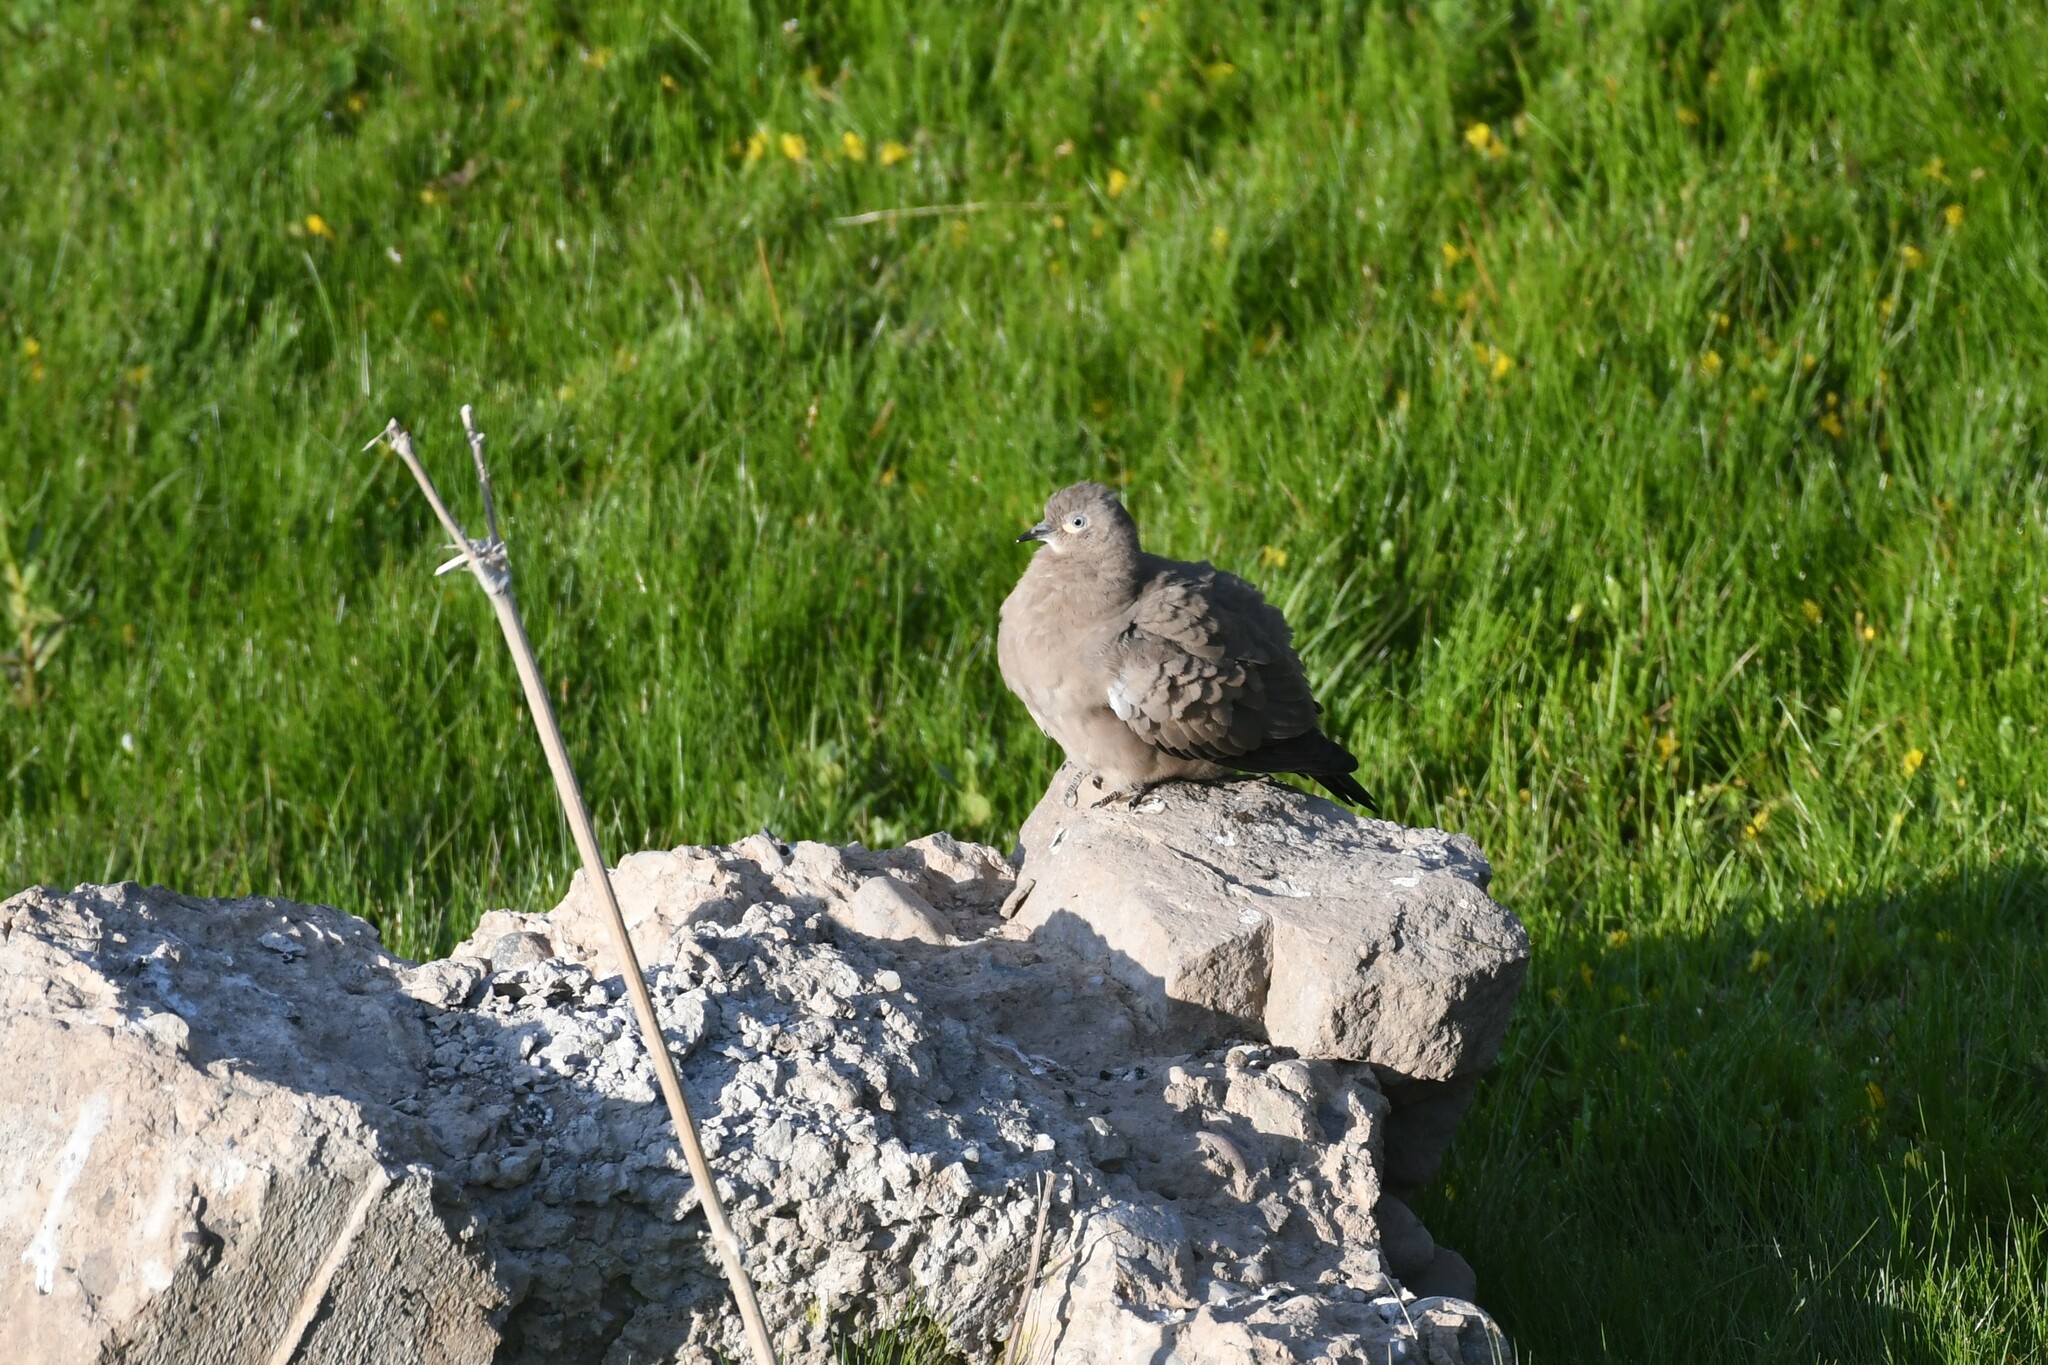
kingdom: Animalia
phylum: Chordata
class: Aves
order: Columbiformes
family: Columbidae
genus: Metriopelia
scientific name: Metriopelia melanoptera
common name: Black-winged ground dove
